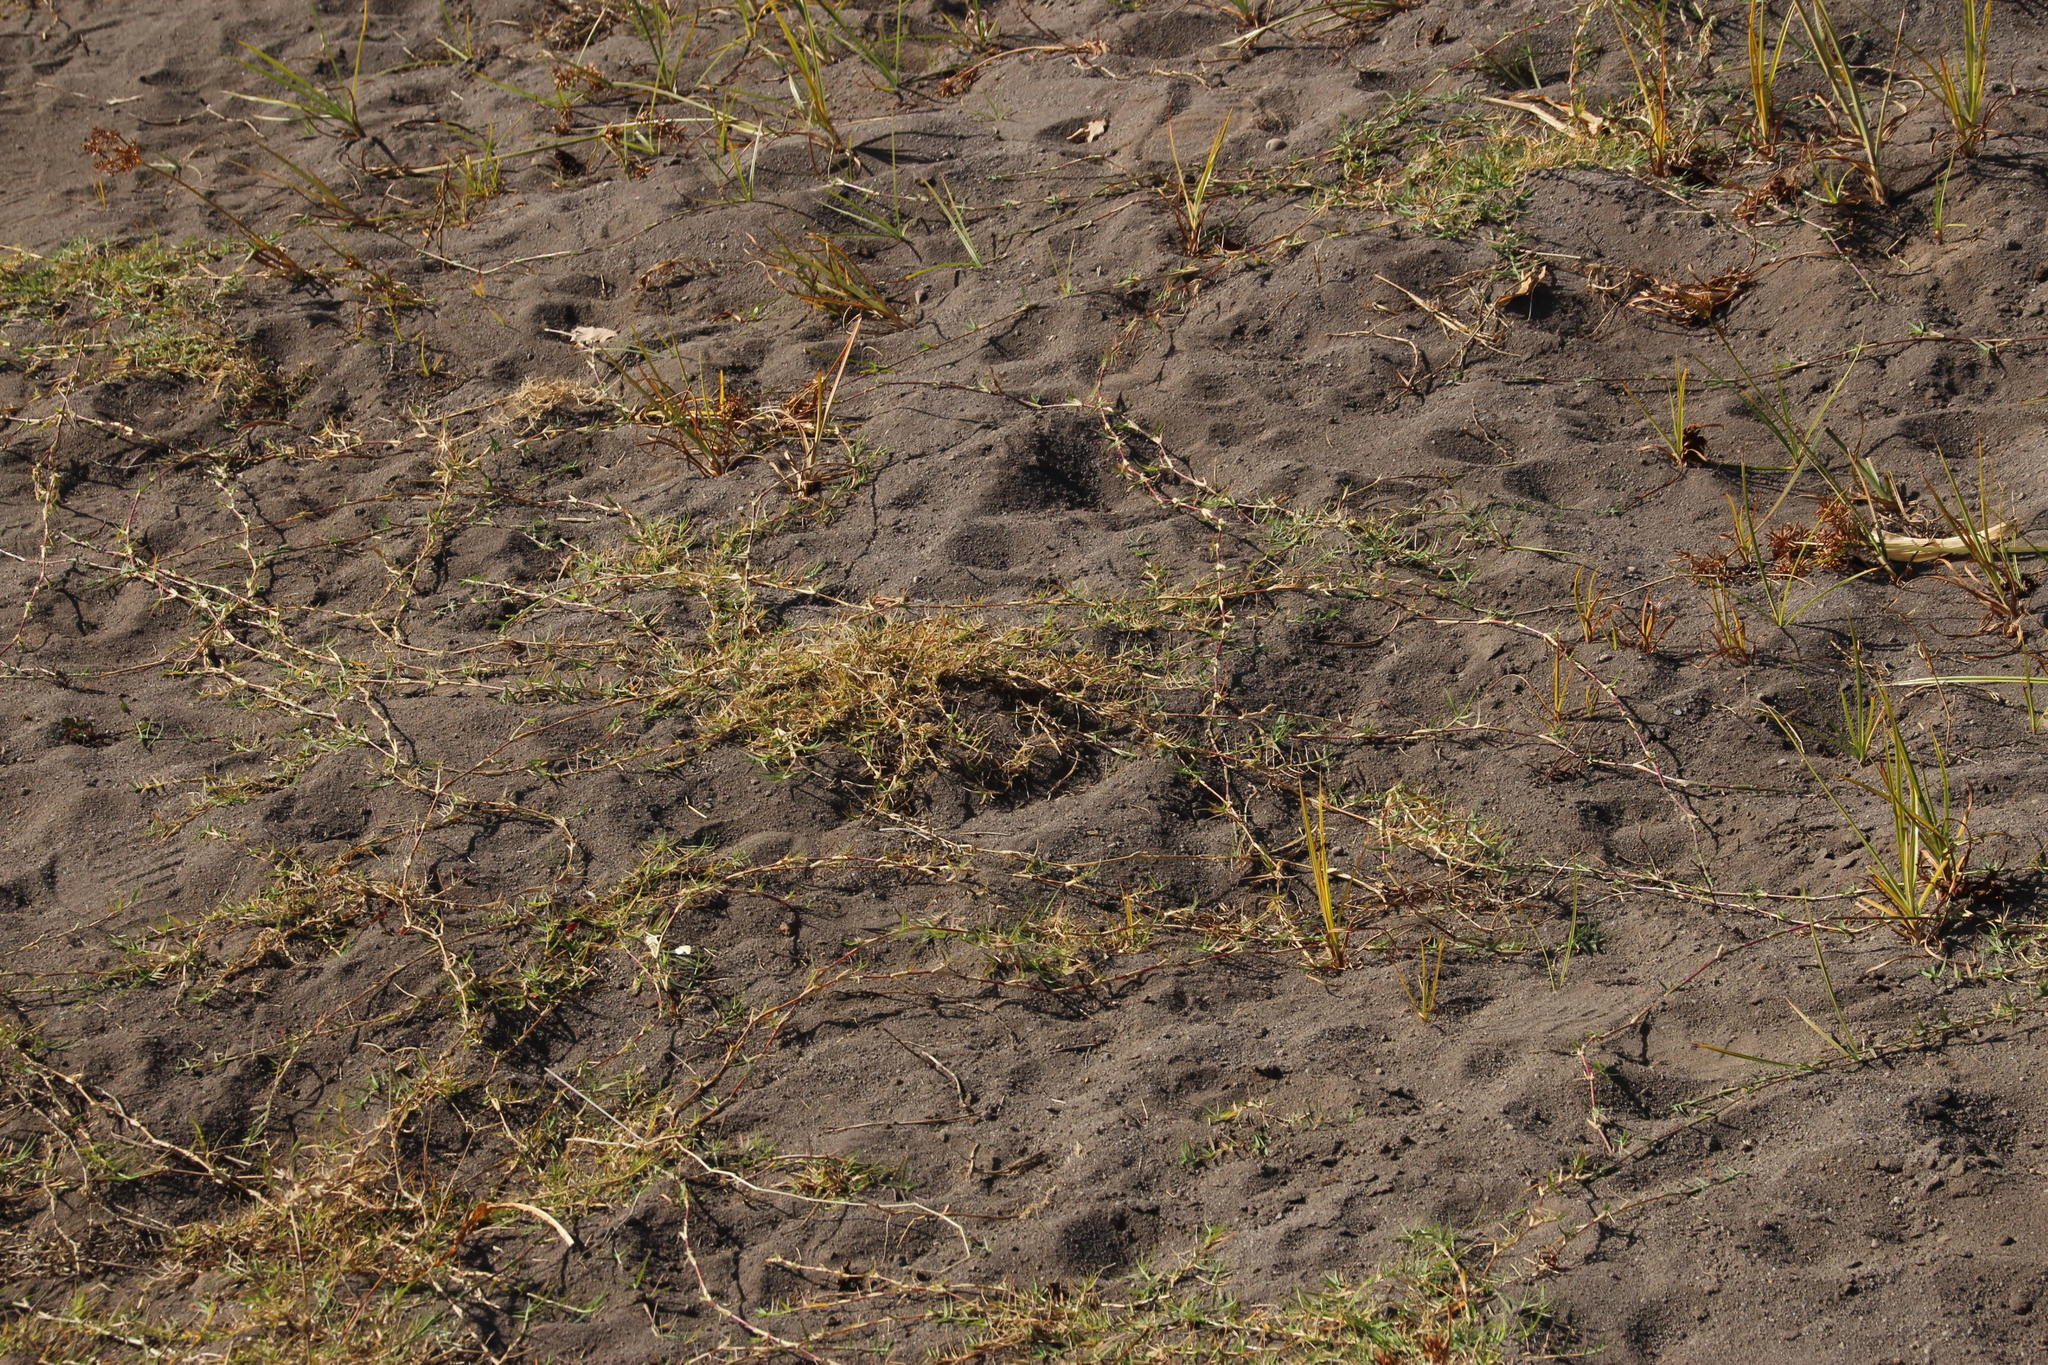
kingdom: Plantae
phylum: Tracheophyta
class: Liliopsida
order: Poales
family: Poaceae
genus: Cynodon
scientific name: Cynodon dactylon
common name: Bermuda grass
